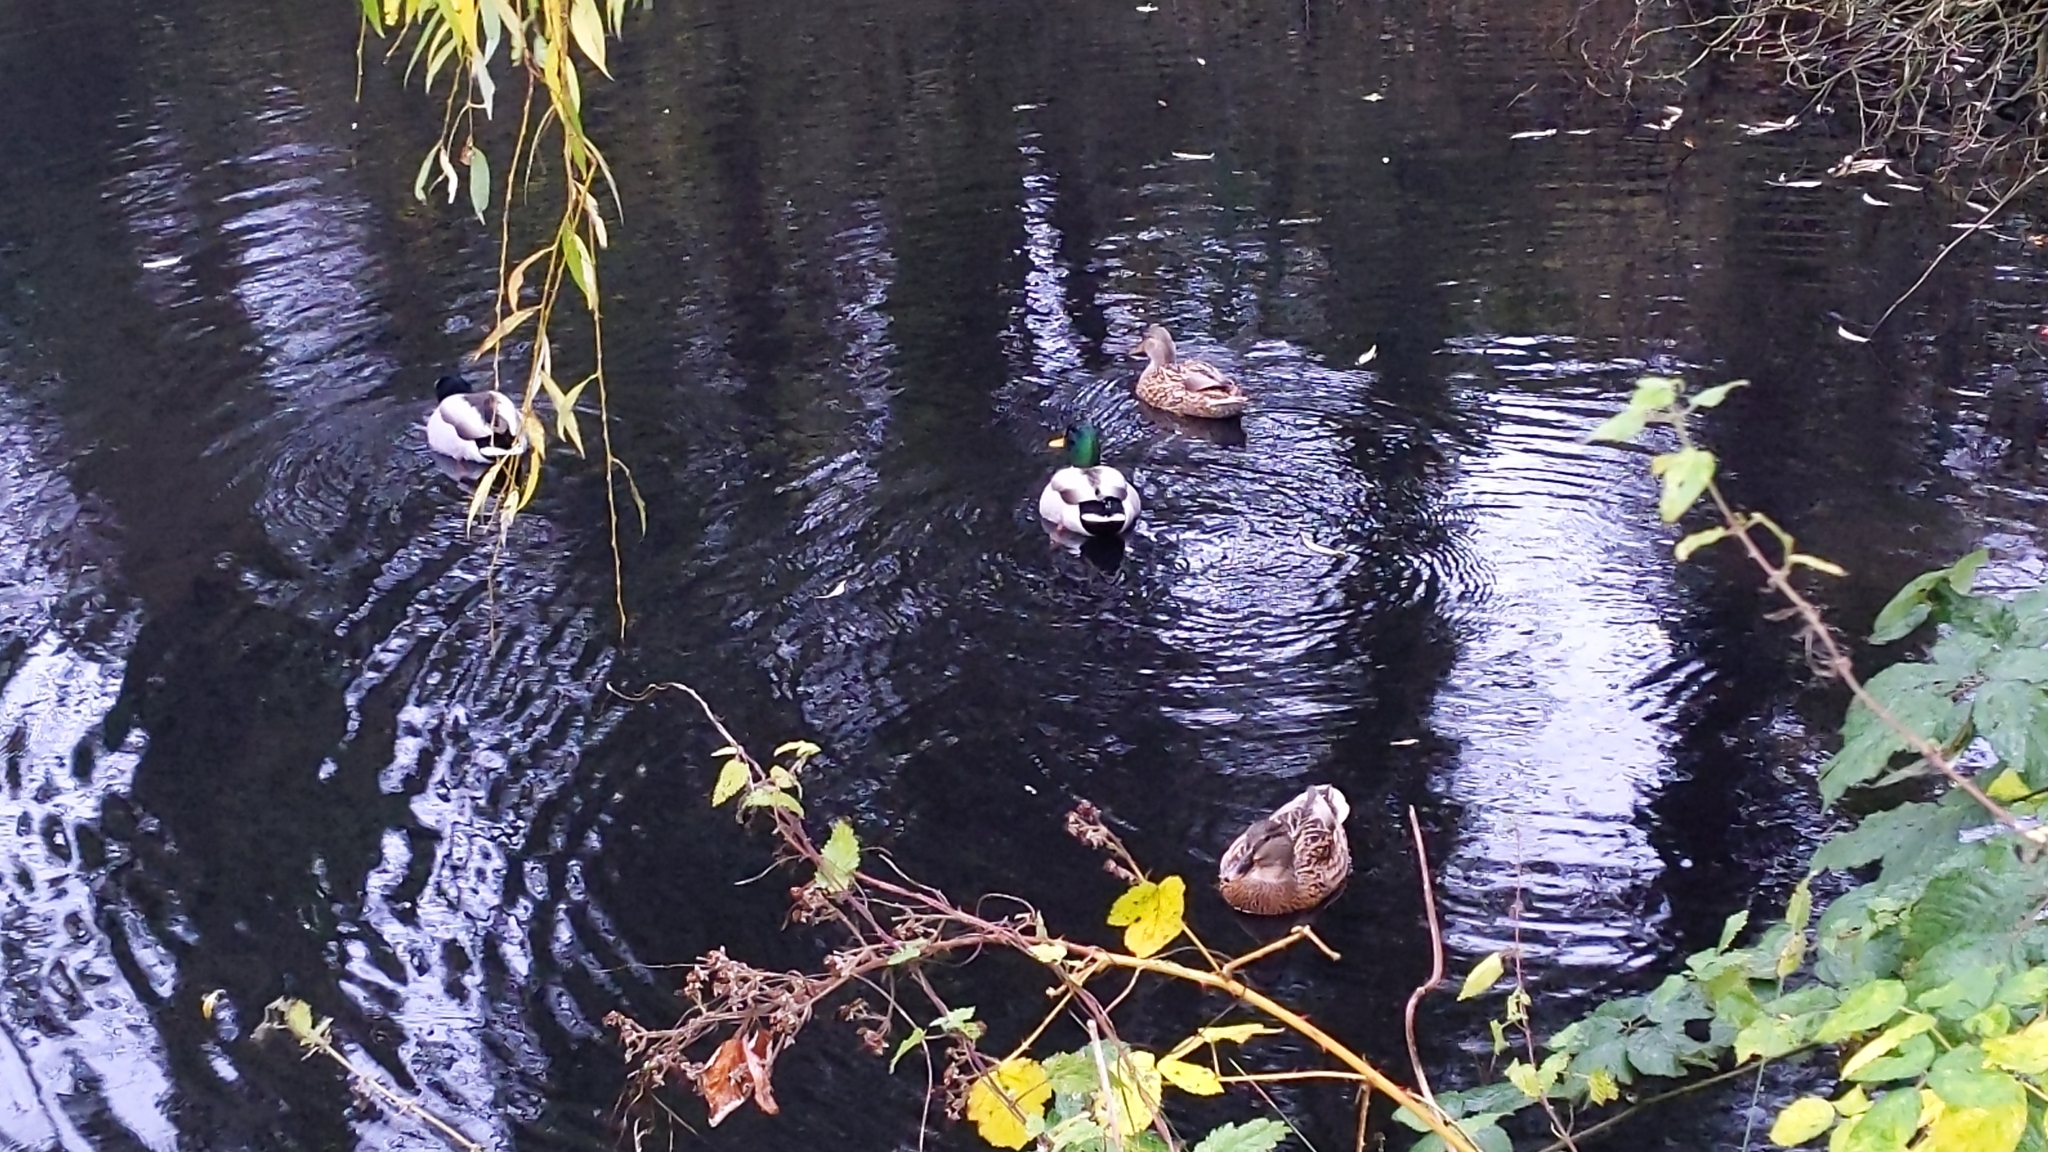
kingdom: Animalia
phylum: Chordata
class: Aves
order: Anseriformes
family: Anatidae
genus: Anas
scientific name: Anas platyrhynchos
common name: Mallard
